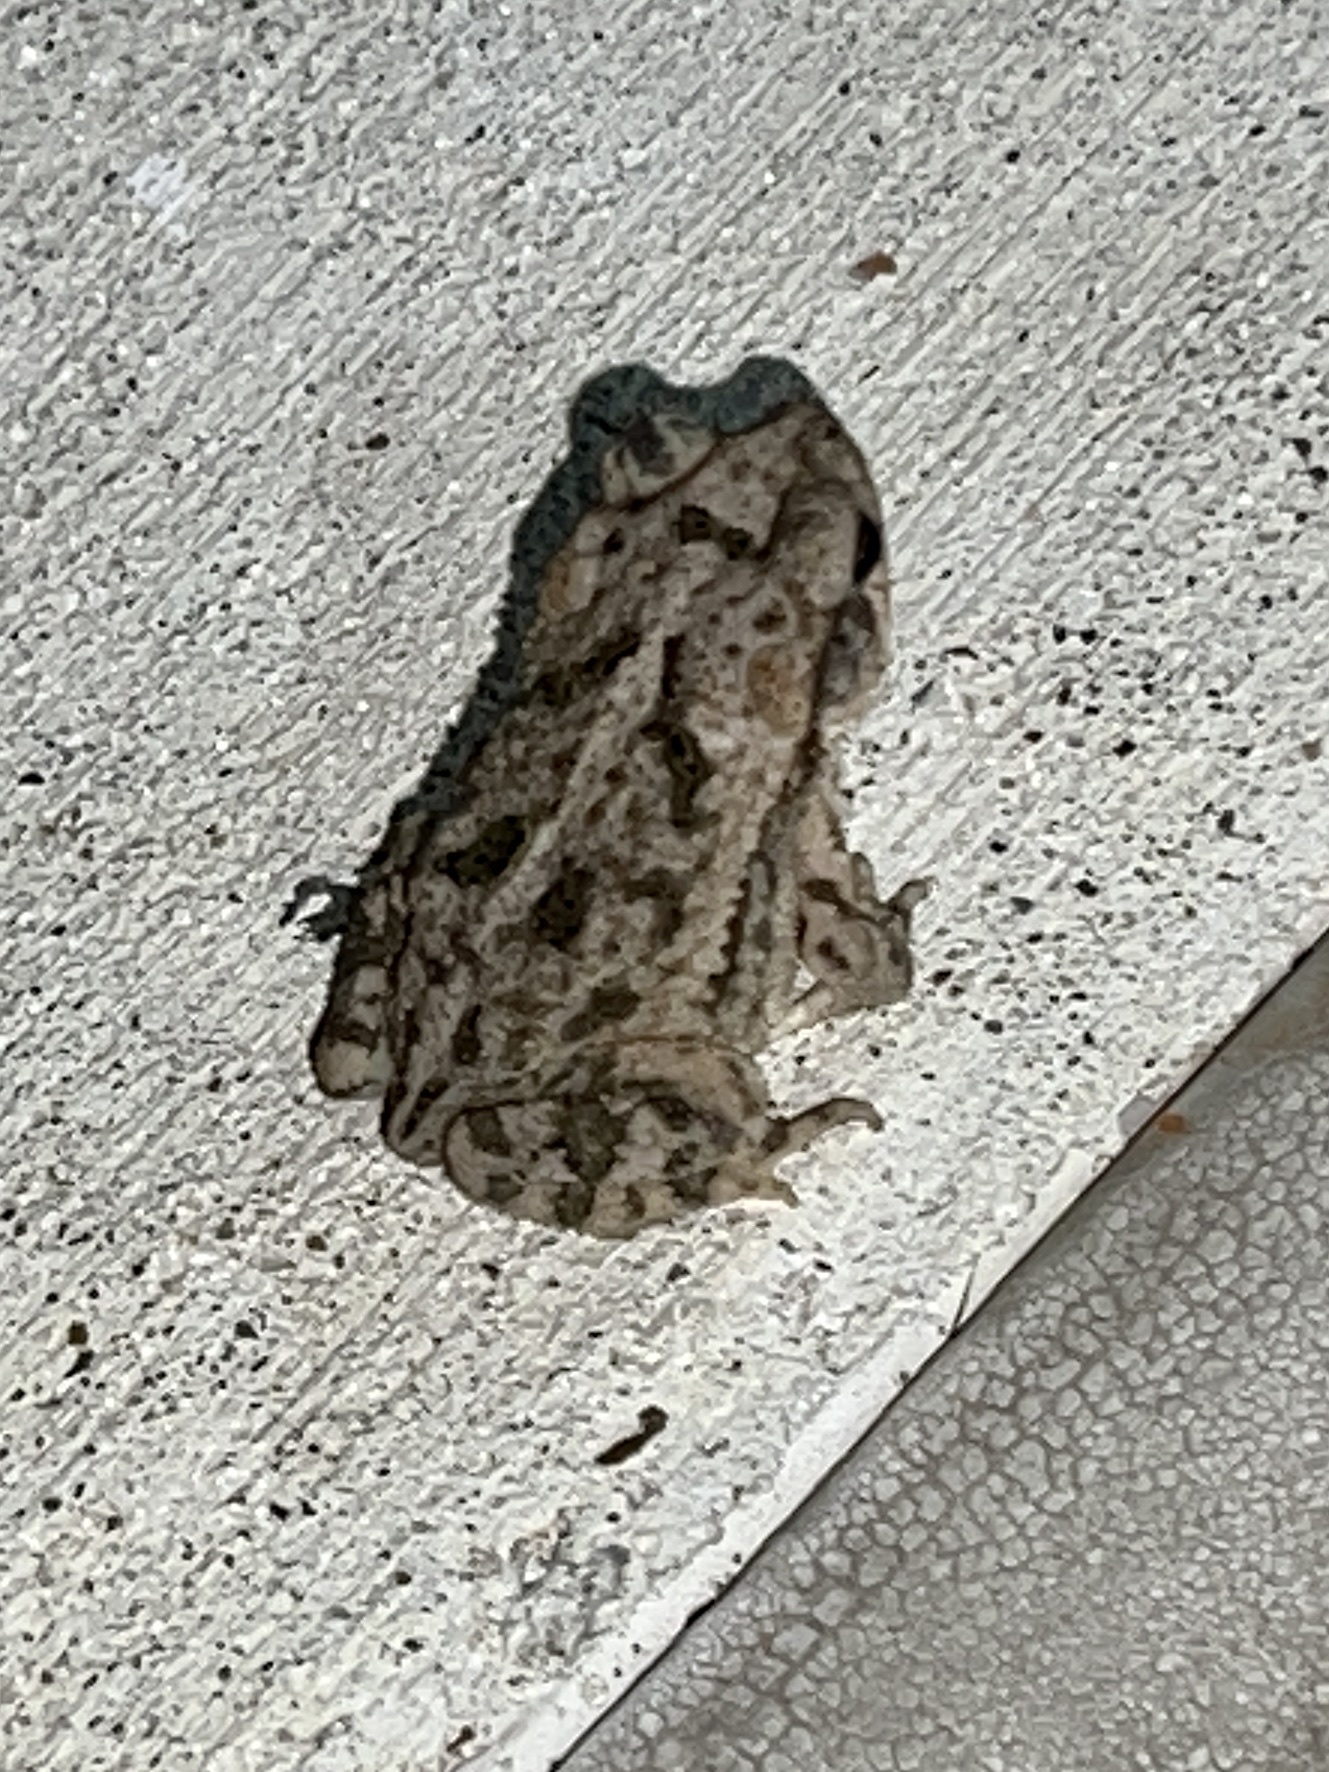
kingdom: Animalia
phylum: Chordata
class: Amphibia
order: Anura
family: Bufonidae
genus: Incilius
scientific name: Incilius nebulifer
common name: Gulf coast toad
